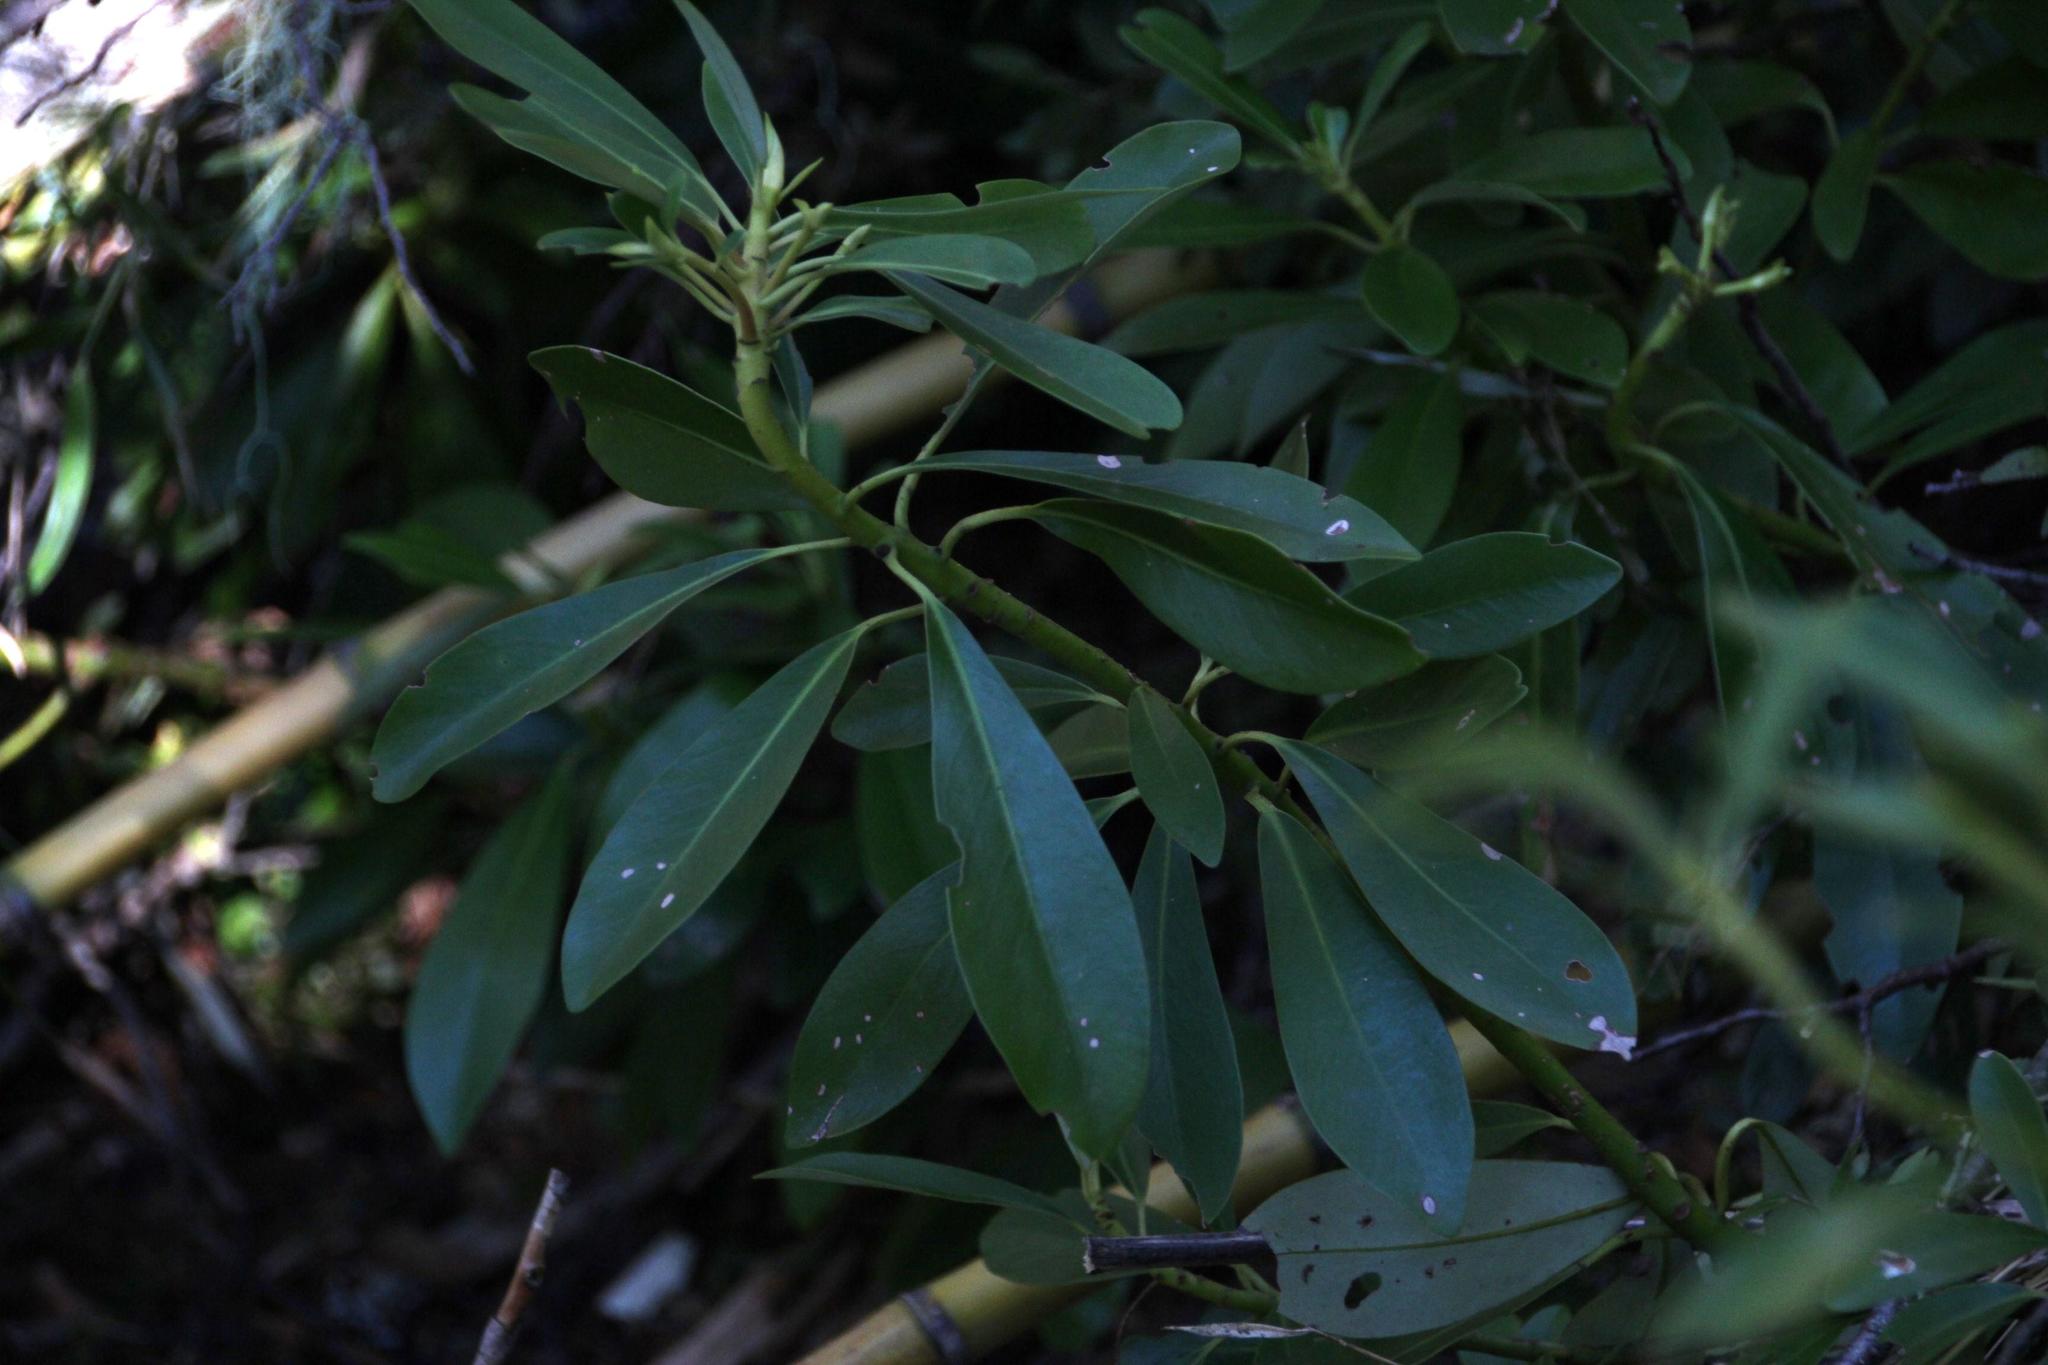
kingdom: Plantae
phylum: Tracheophyta
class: Magnoliopsida
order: Canellales
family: Winteraceae
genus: Drimys
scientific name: Drimys andina
